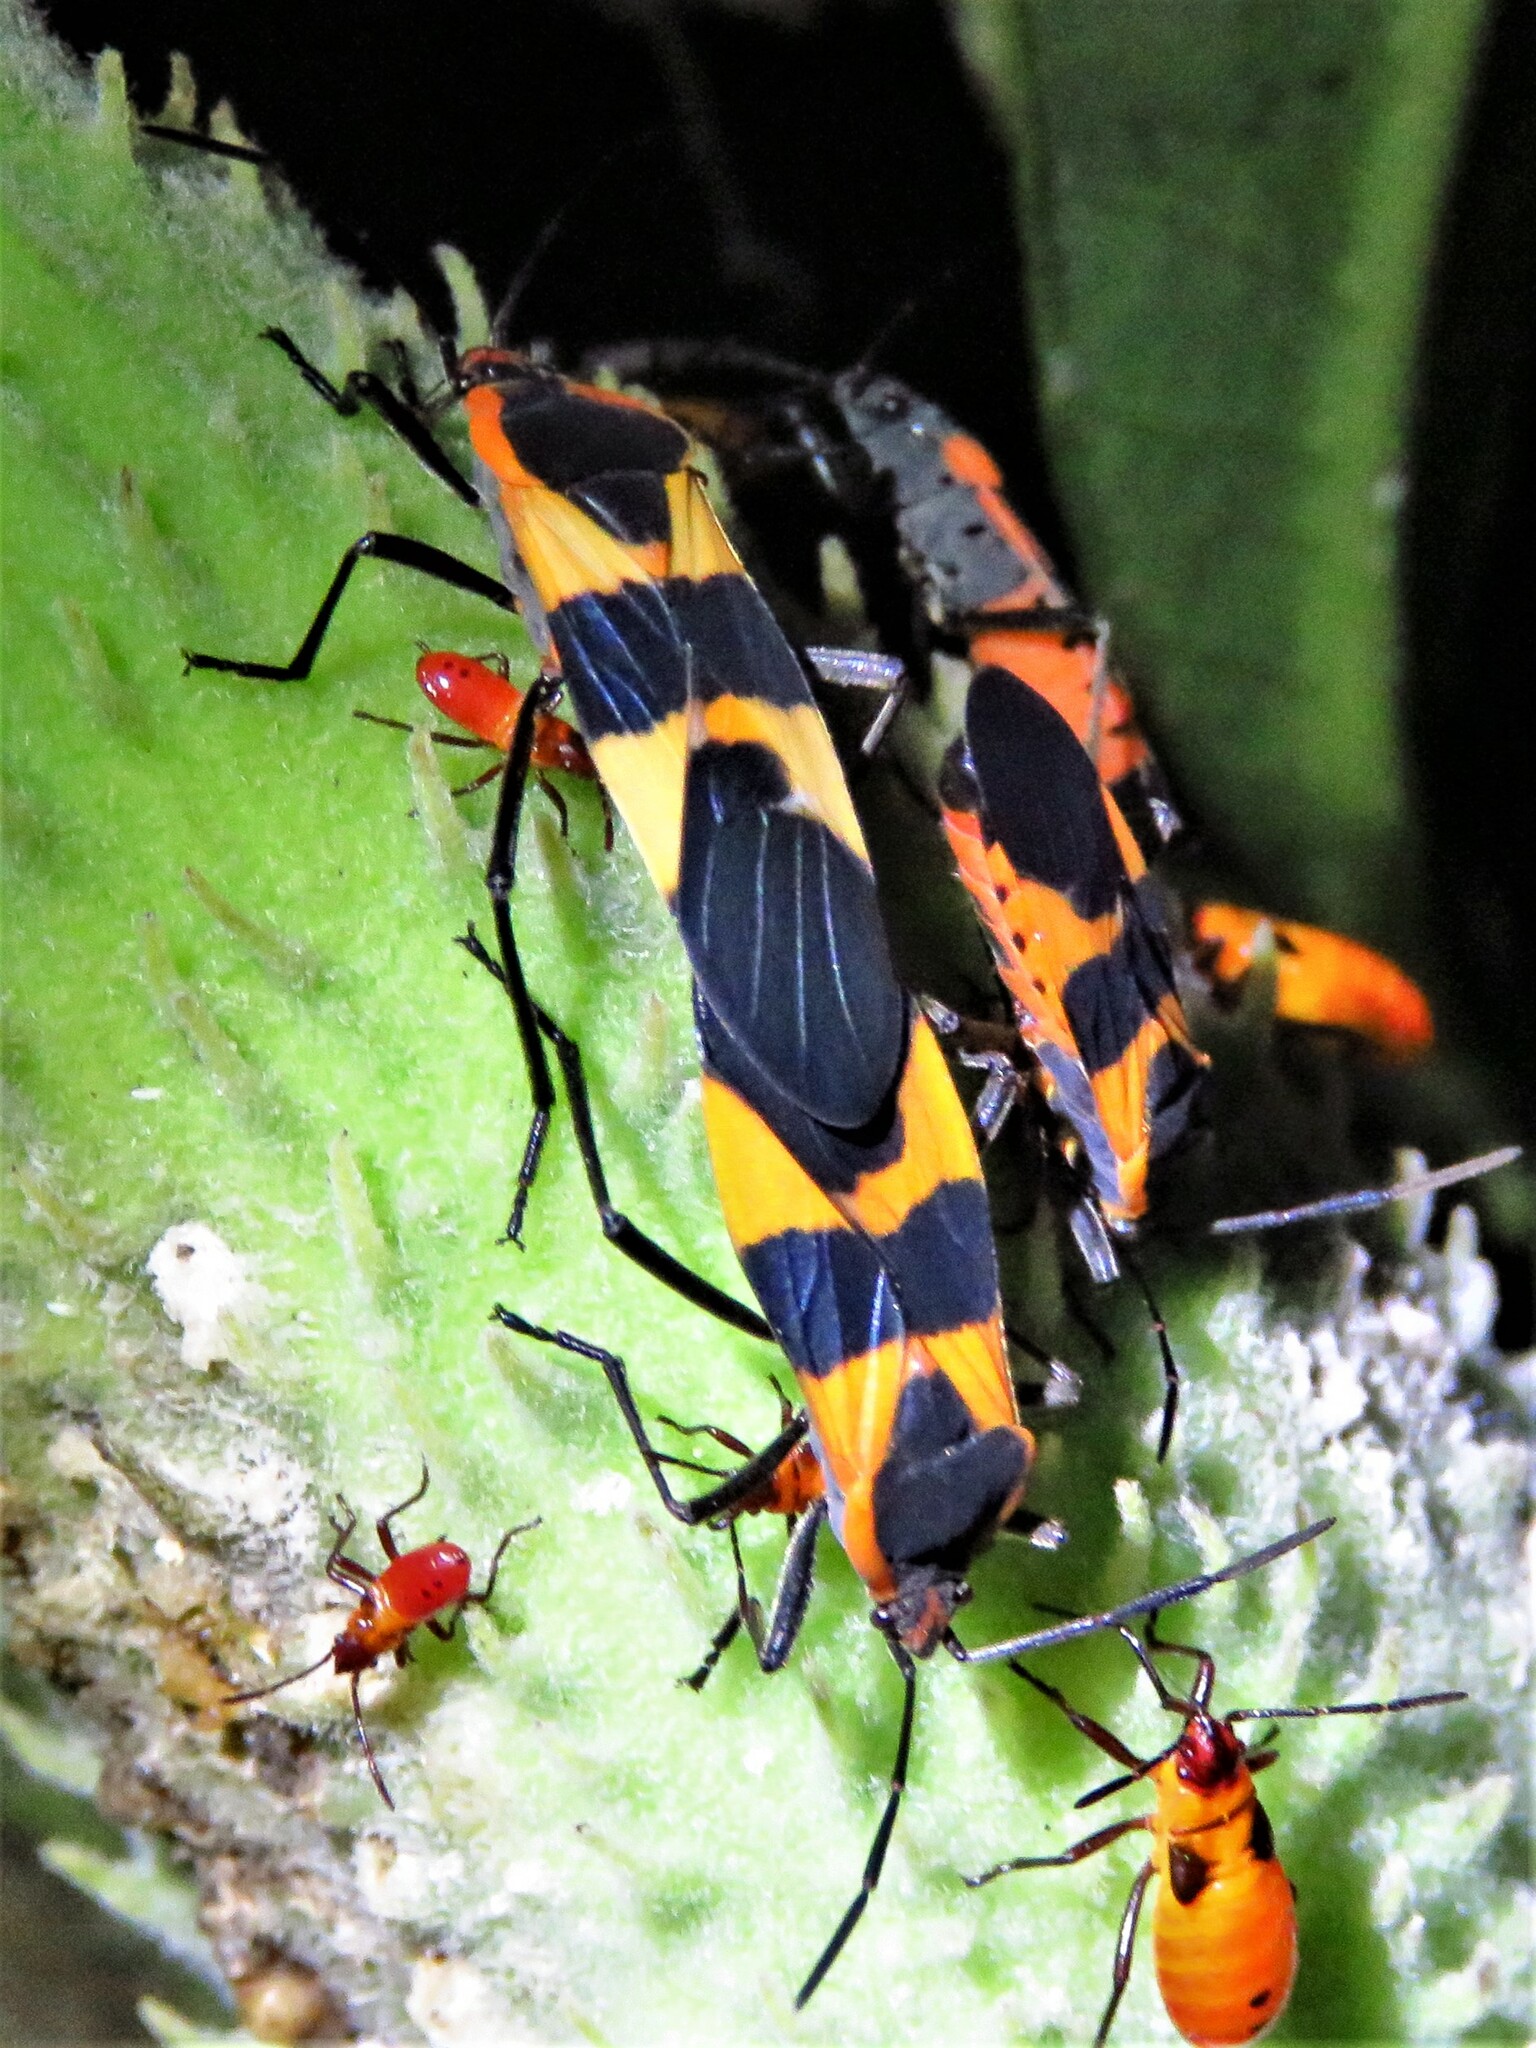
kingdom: Animalia
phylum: Arthropoda
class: Insecta
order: Hemiptera
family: Lygaeidae
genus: Oncopeltus
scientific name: Oncopeltus fasciatus
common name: Large milkweed bug
